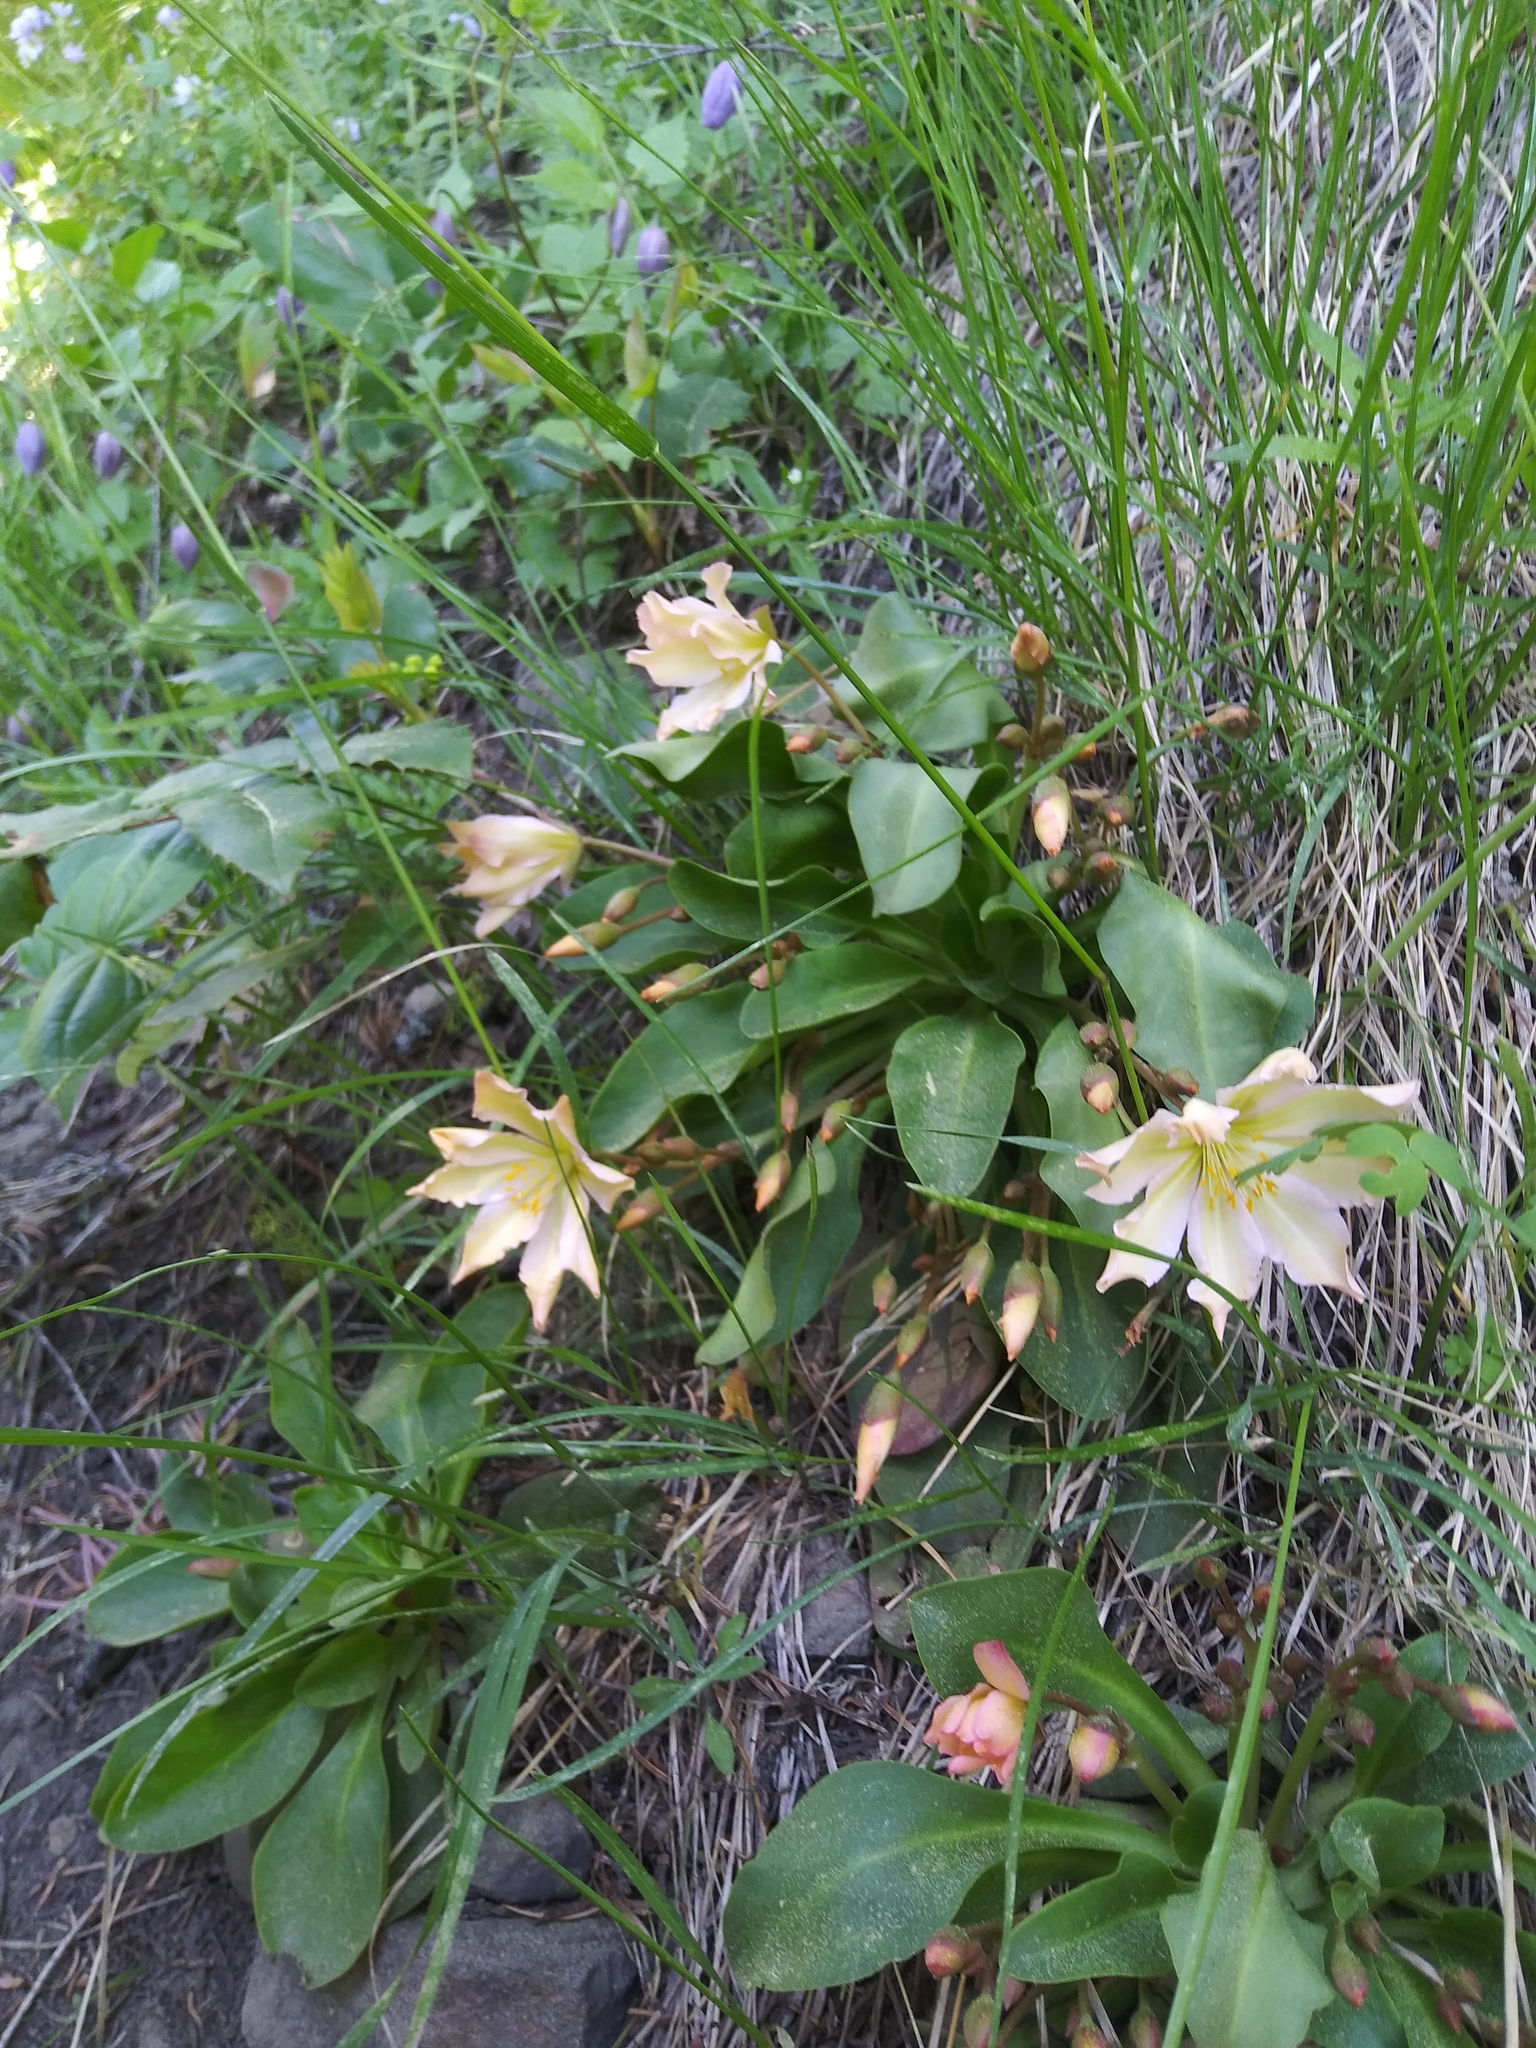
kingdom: Plantae
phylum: Tracheophyta
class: Magnoliopsida
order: Caryophyllales
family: Montiaceae
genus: Lewisiopsis
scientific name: Lewisiopsis tweedyi
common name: Tweedy's pussypaws
